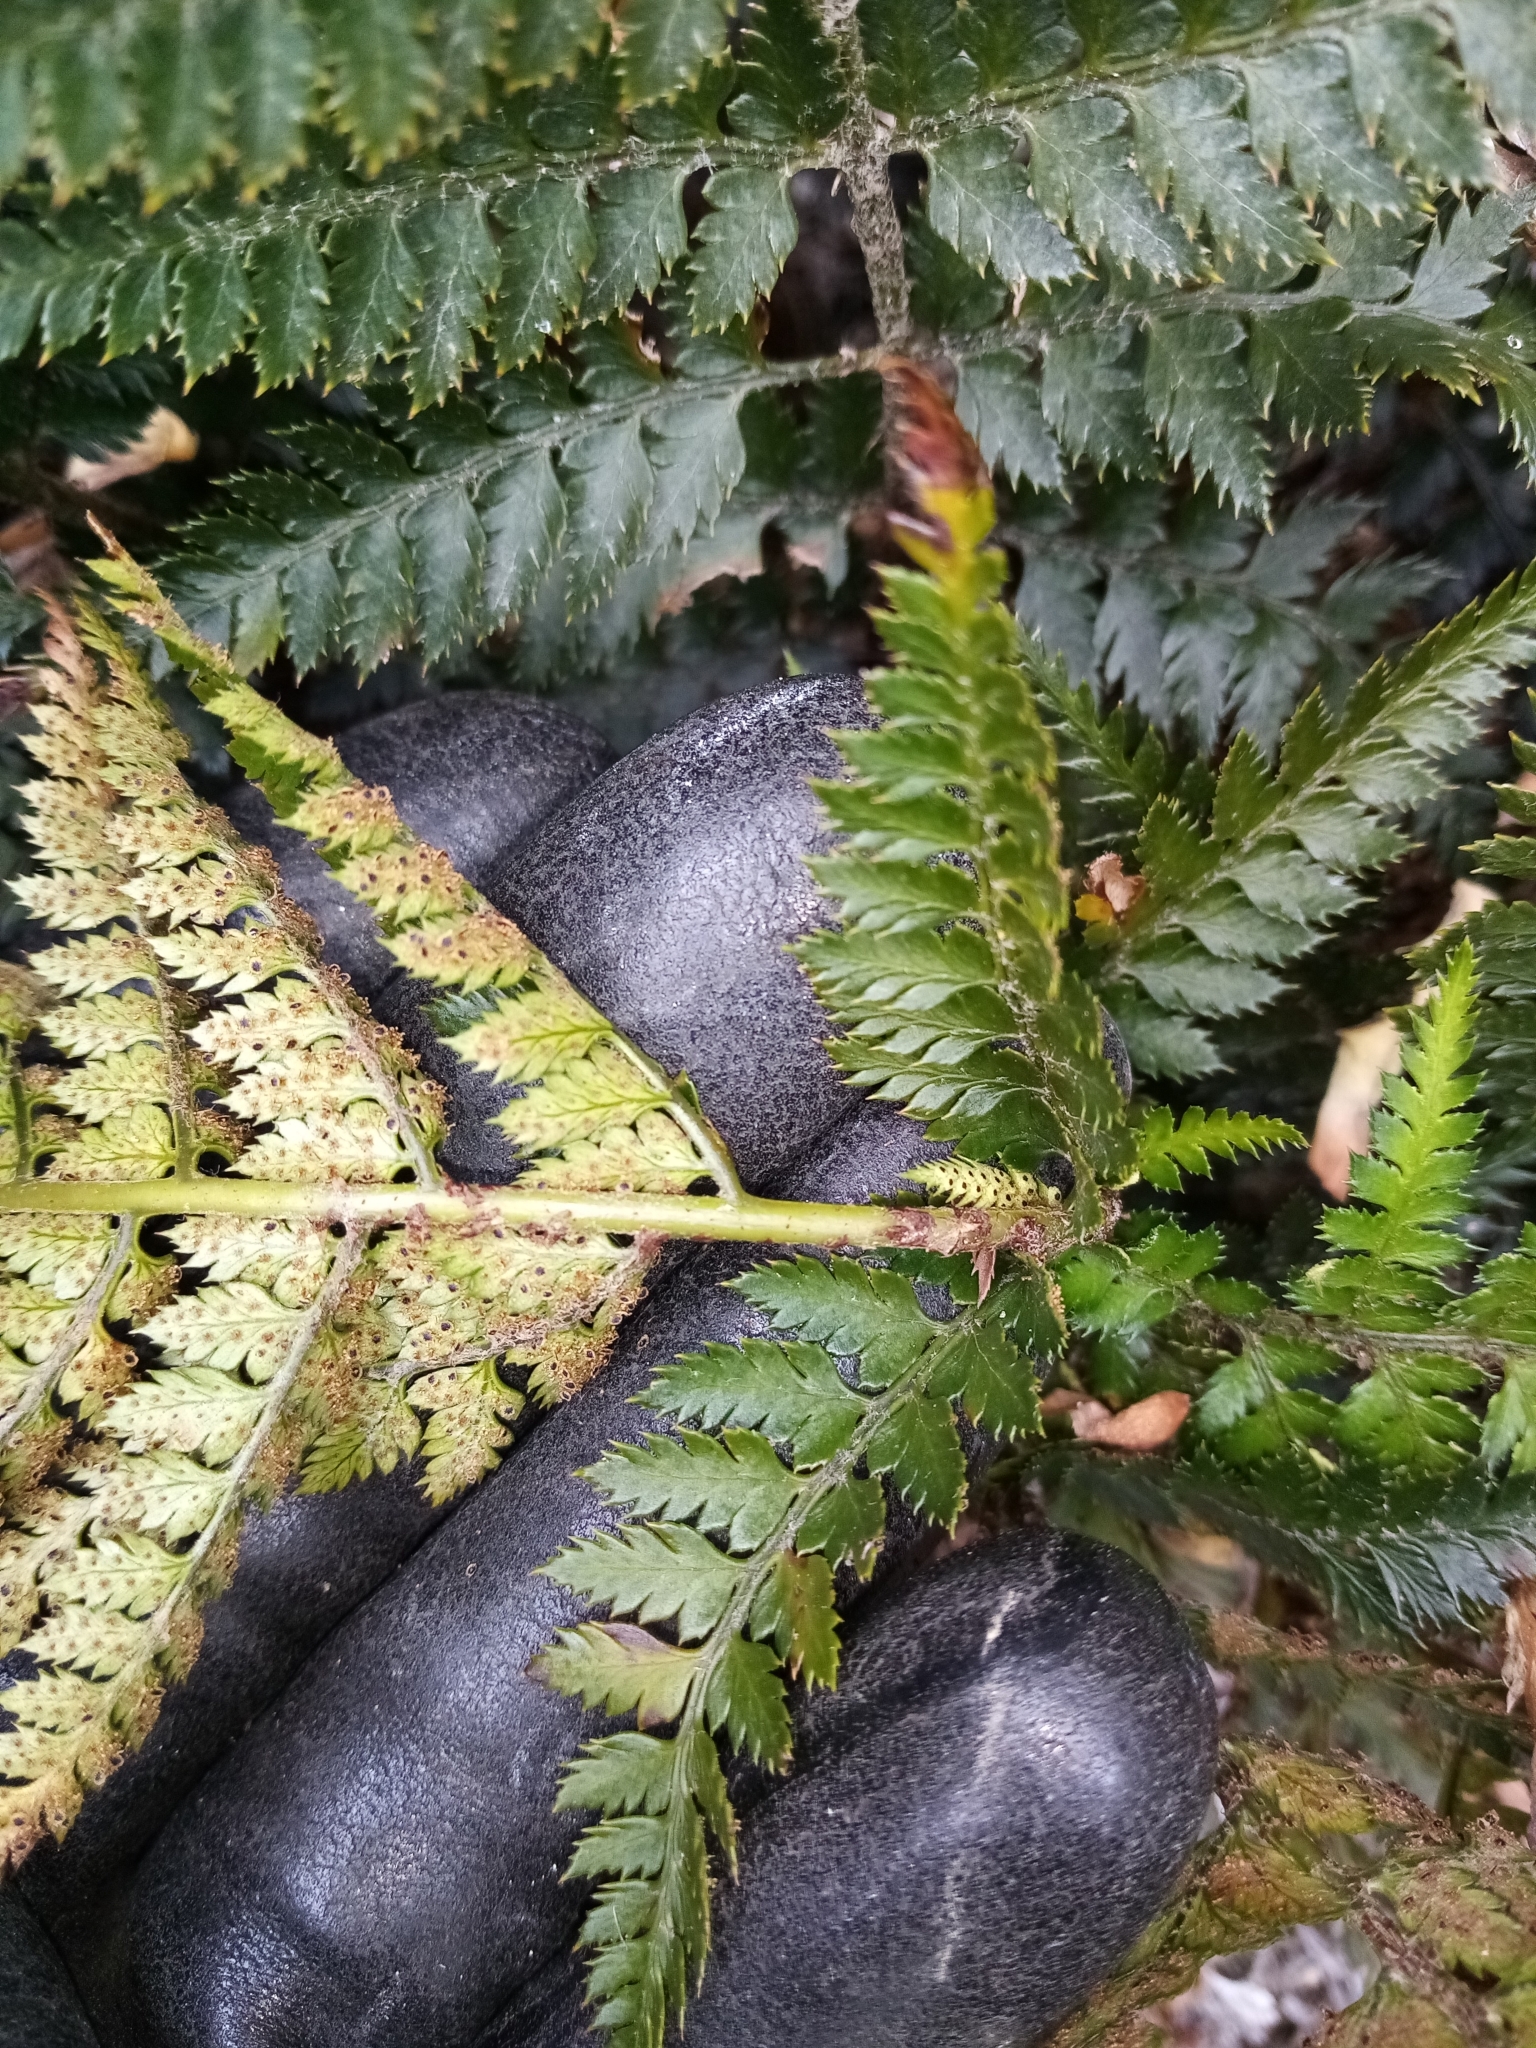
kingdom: Plantae
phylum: Tracheophyta
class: Polypodiopsida
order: Polypodiales
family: Dryopteridaceae
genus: Polystichum
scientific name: Polystichum oculatum
